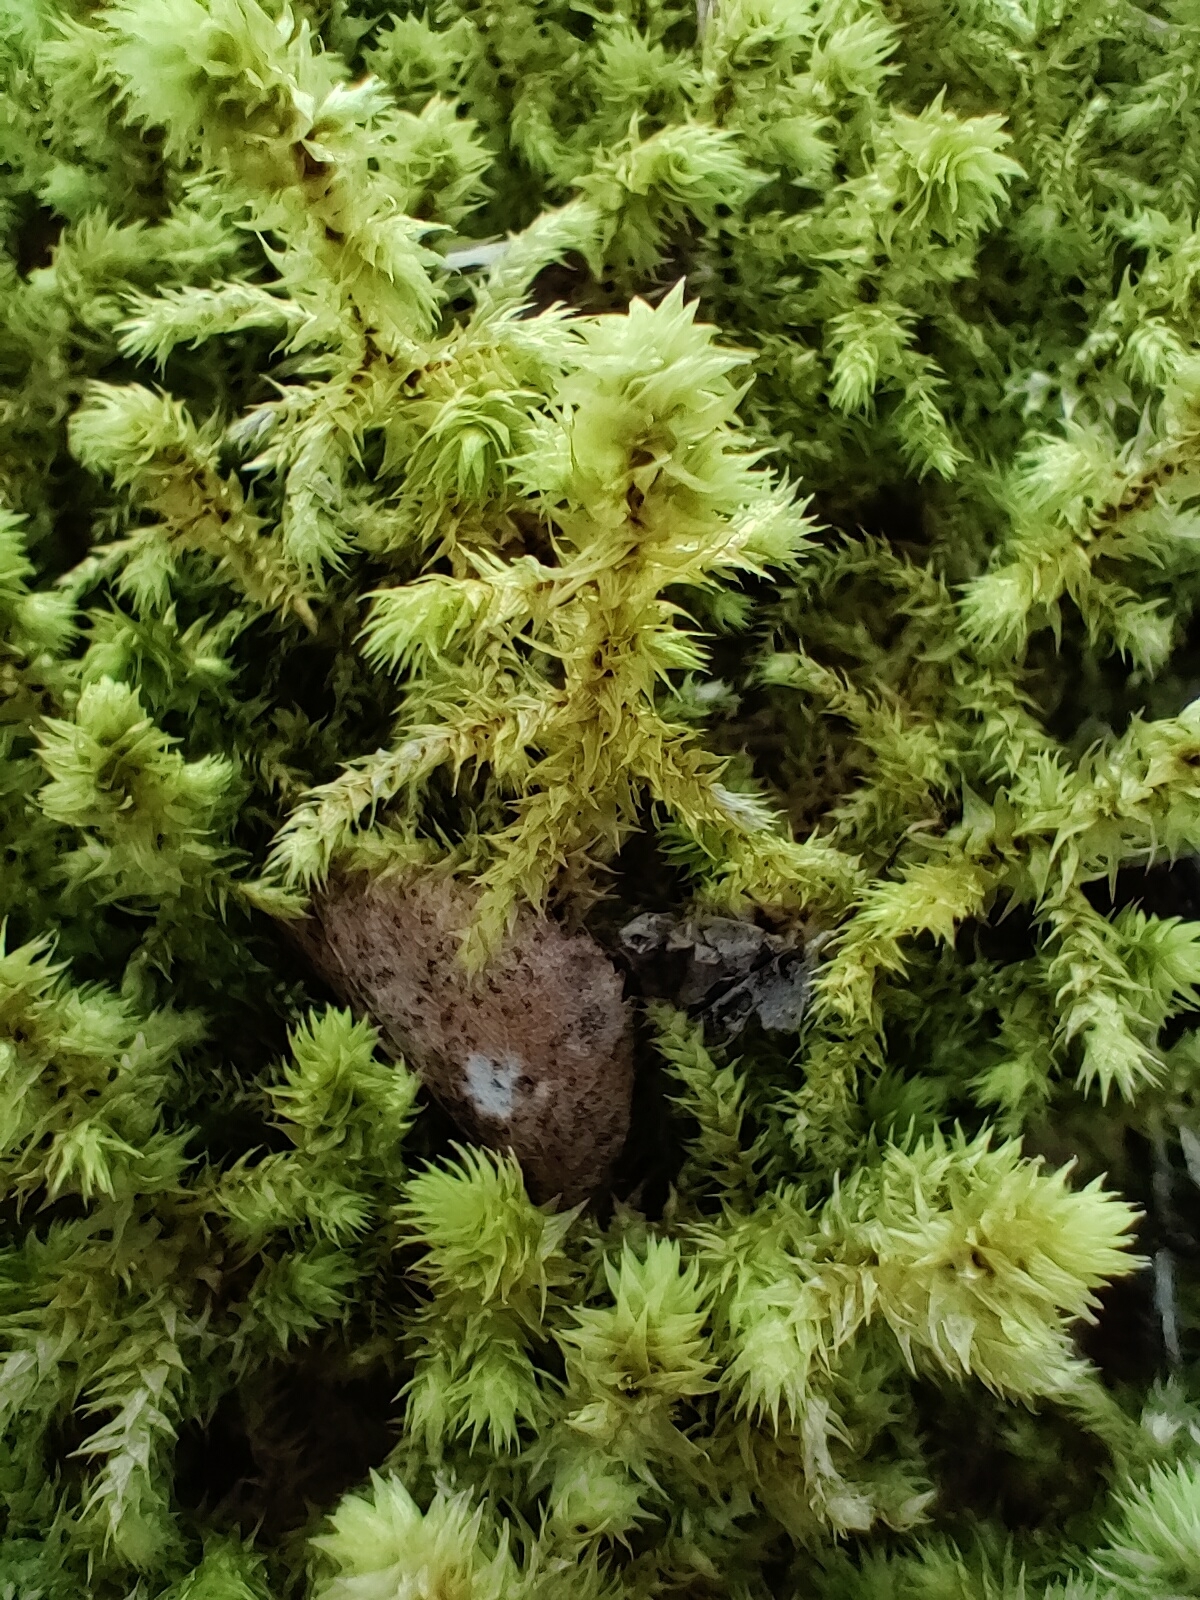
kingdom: Plantae
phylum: Bryophyta
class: Bryopsida
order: Hypnales
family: Hylocomiaceae
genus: Hylocomiadelphus
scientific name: Hylocomiadelphus triquetrus
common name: Rough goose neck moss
